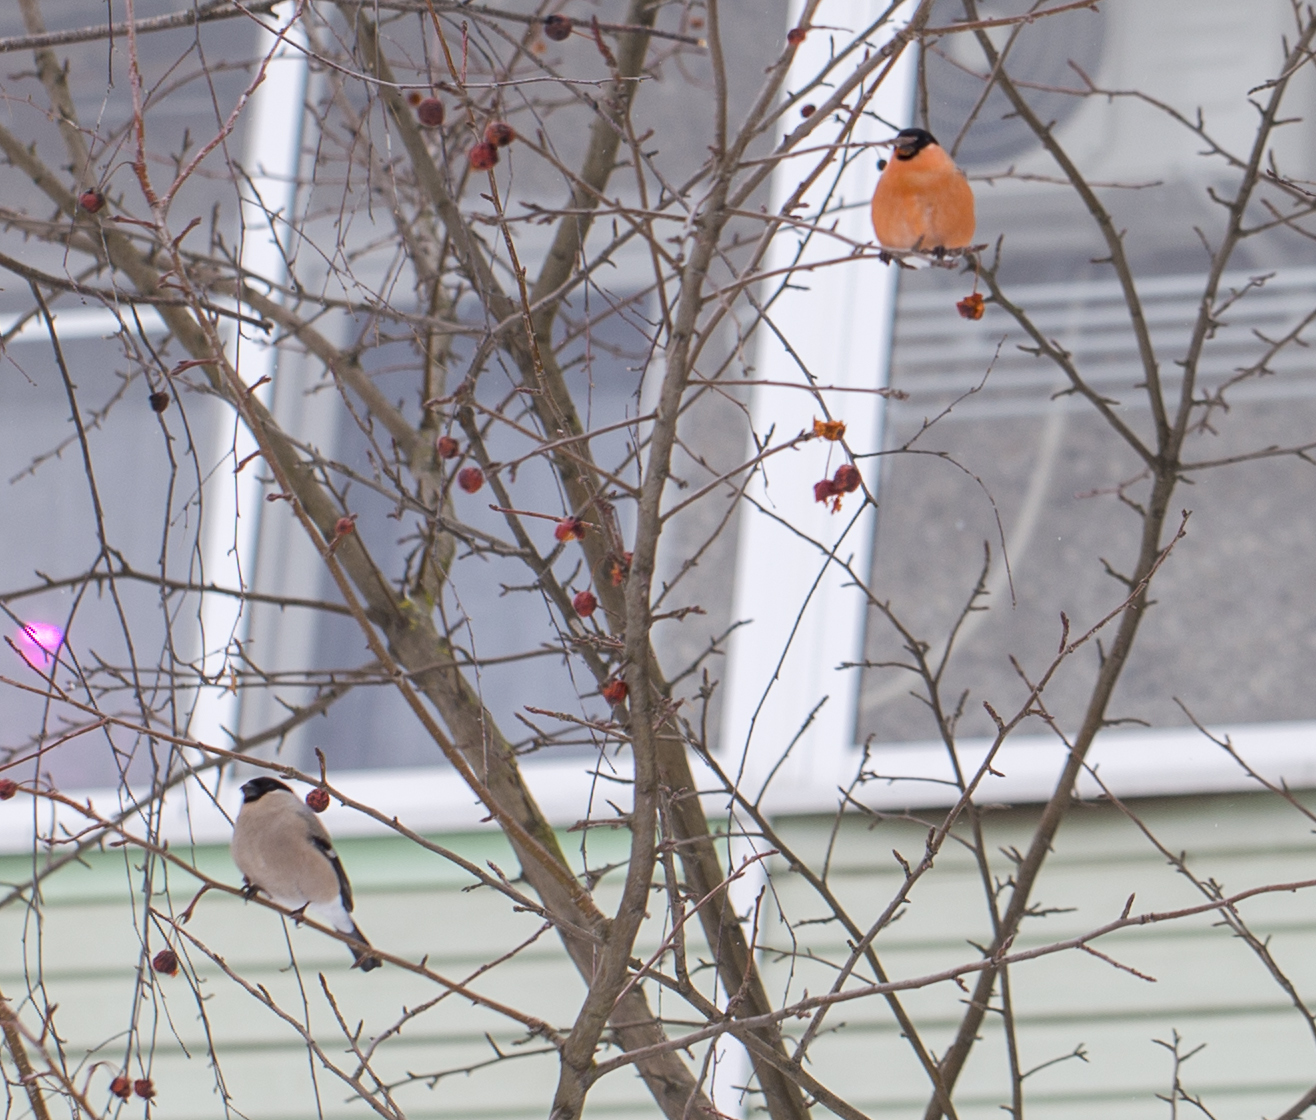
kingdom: Animalia
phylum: Chordata
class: Aves
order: Passeriformes
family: Fringillidae
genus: Pyrrhula
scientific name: Pyrrhula pyrrhula
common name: Eurasian bullfinch
